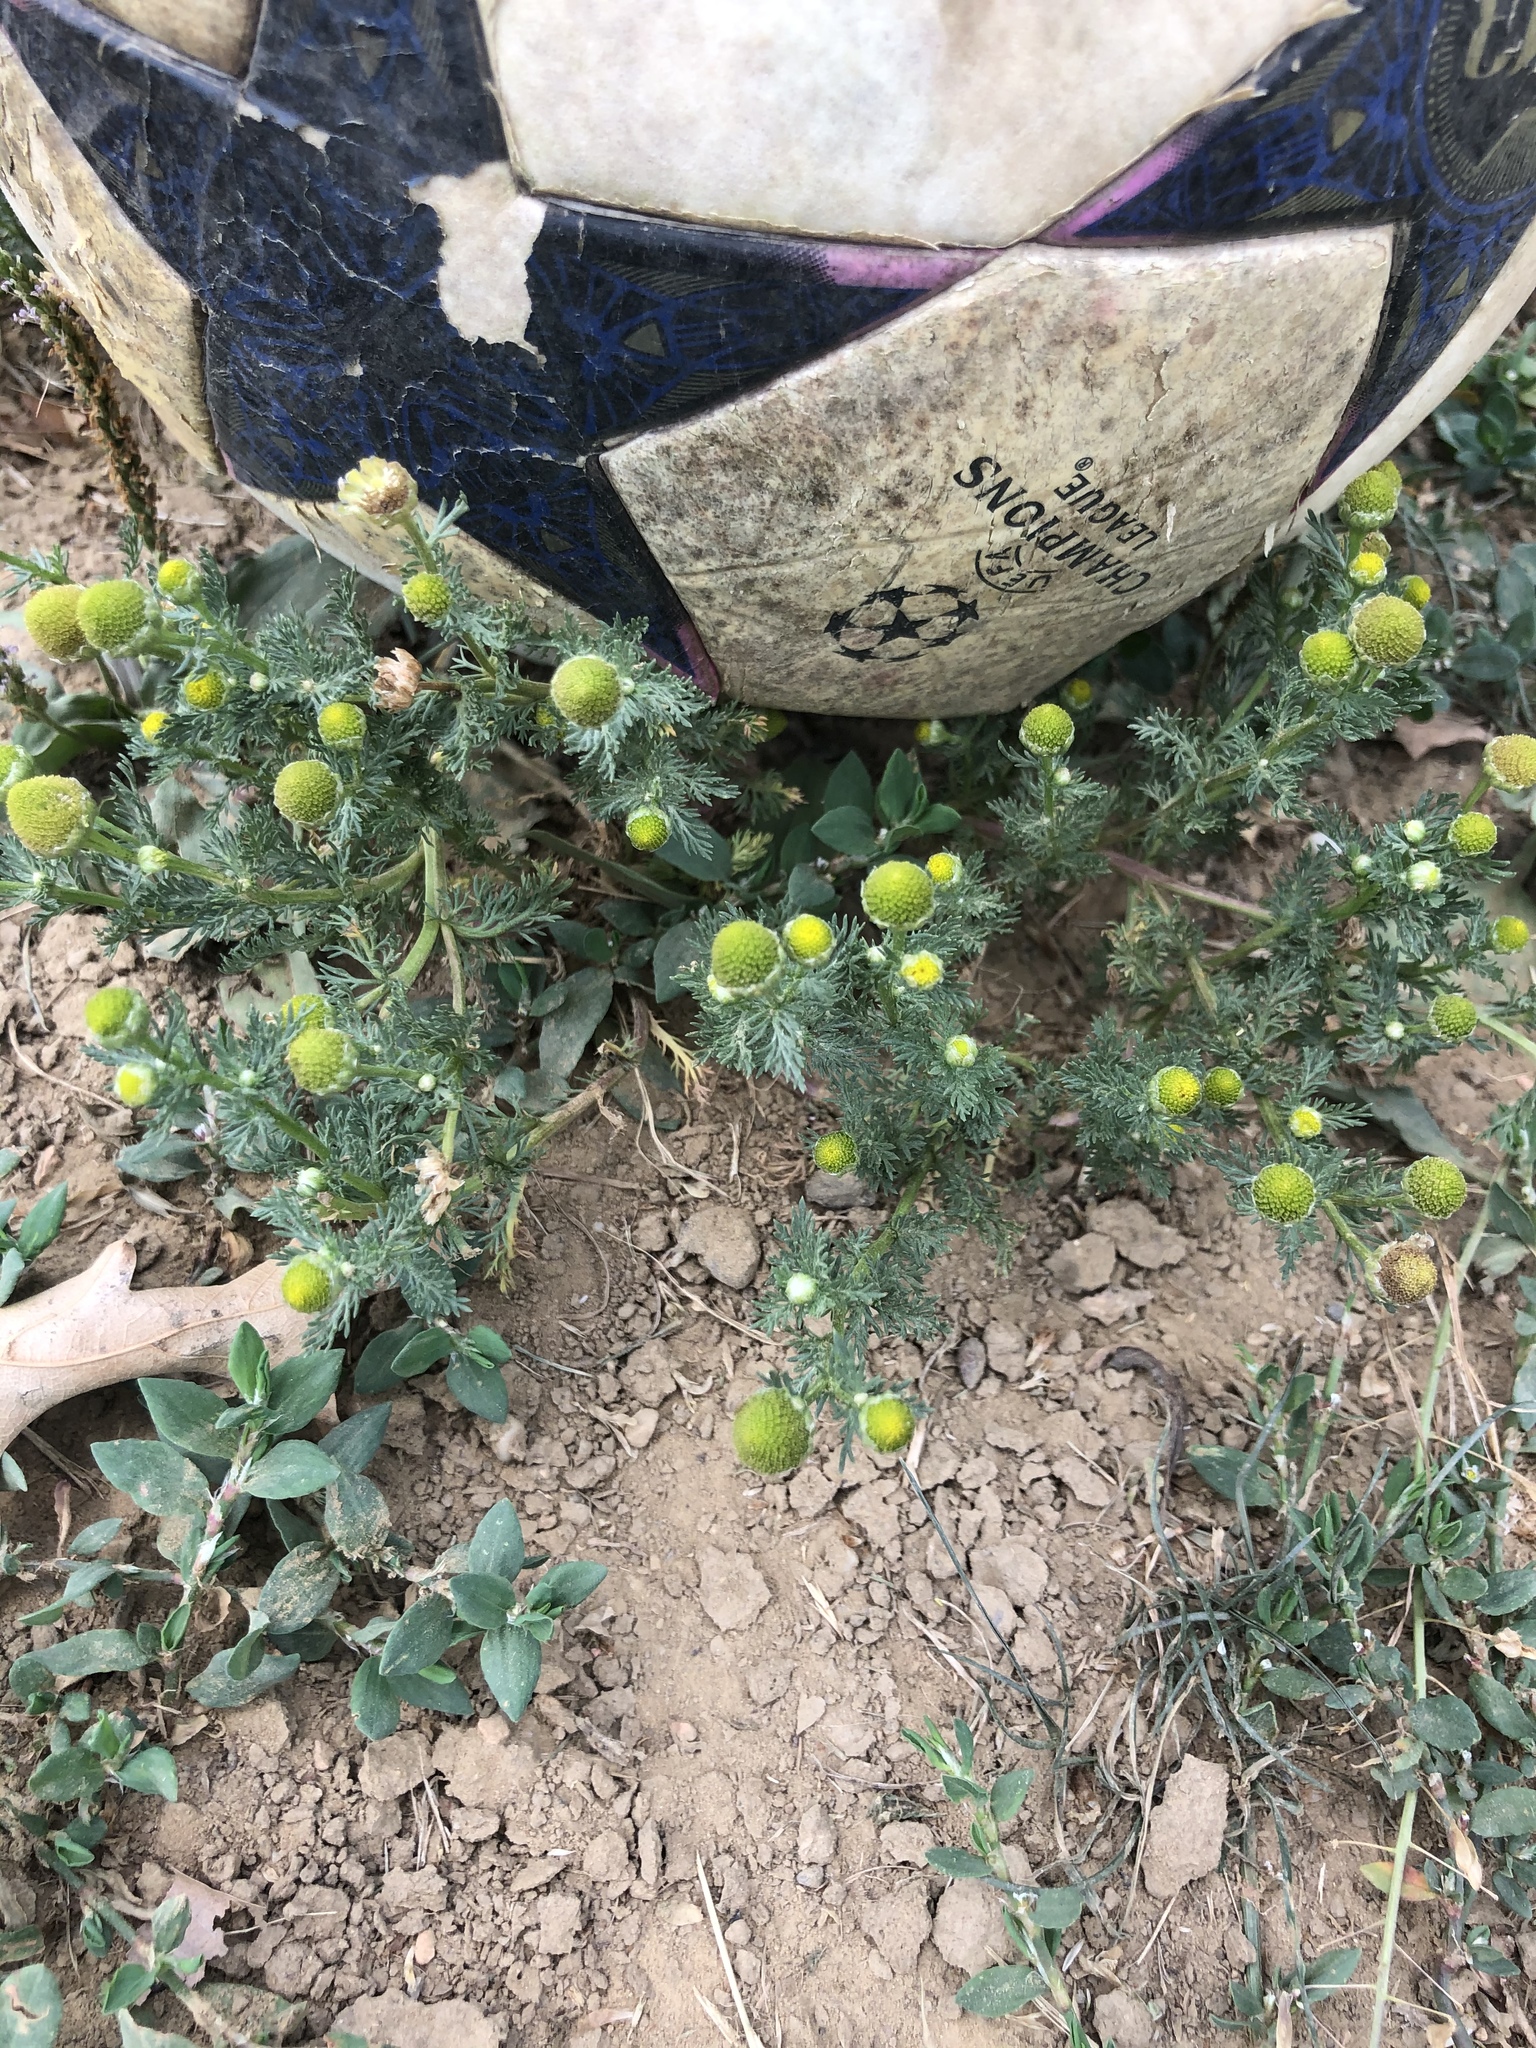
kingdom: Plantae
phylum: Tracheophyta
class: Magnoliopsida
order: Asterales
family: Asteraceae
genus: Matricaria
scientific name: Matricaria discoidea
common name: Disc mayweed
